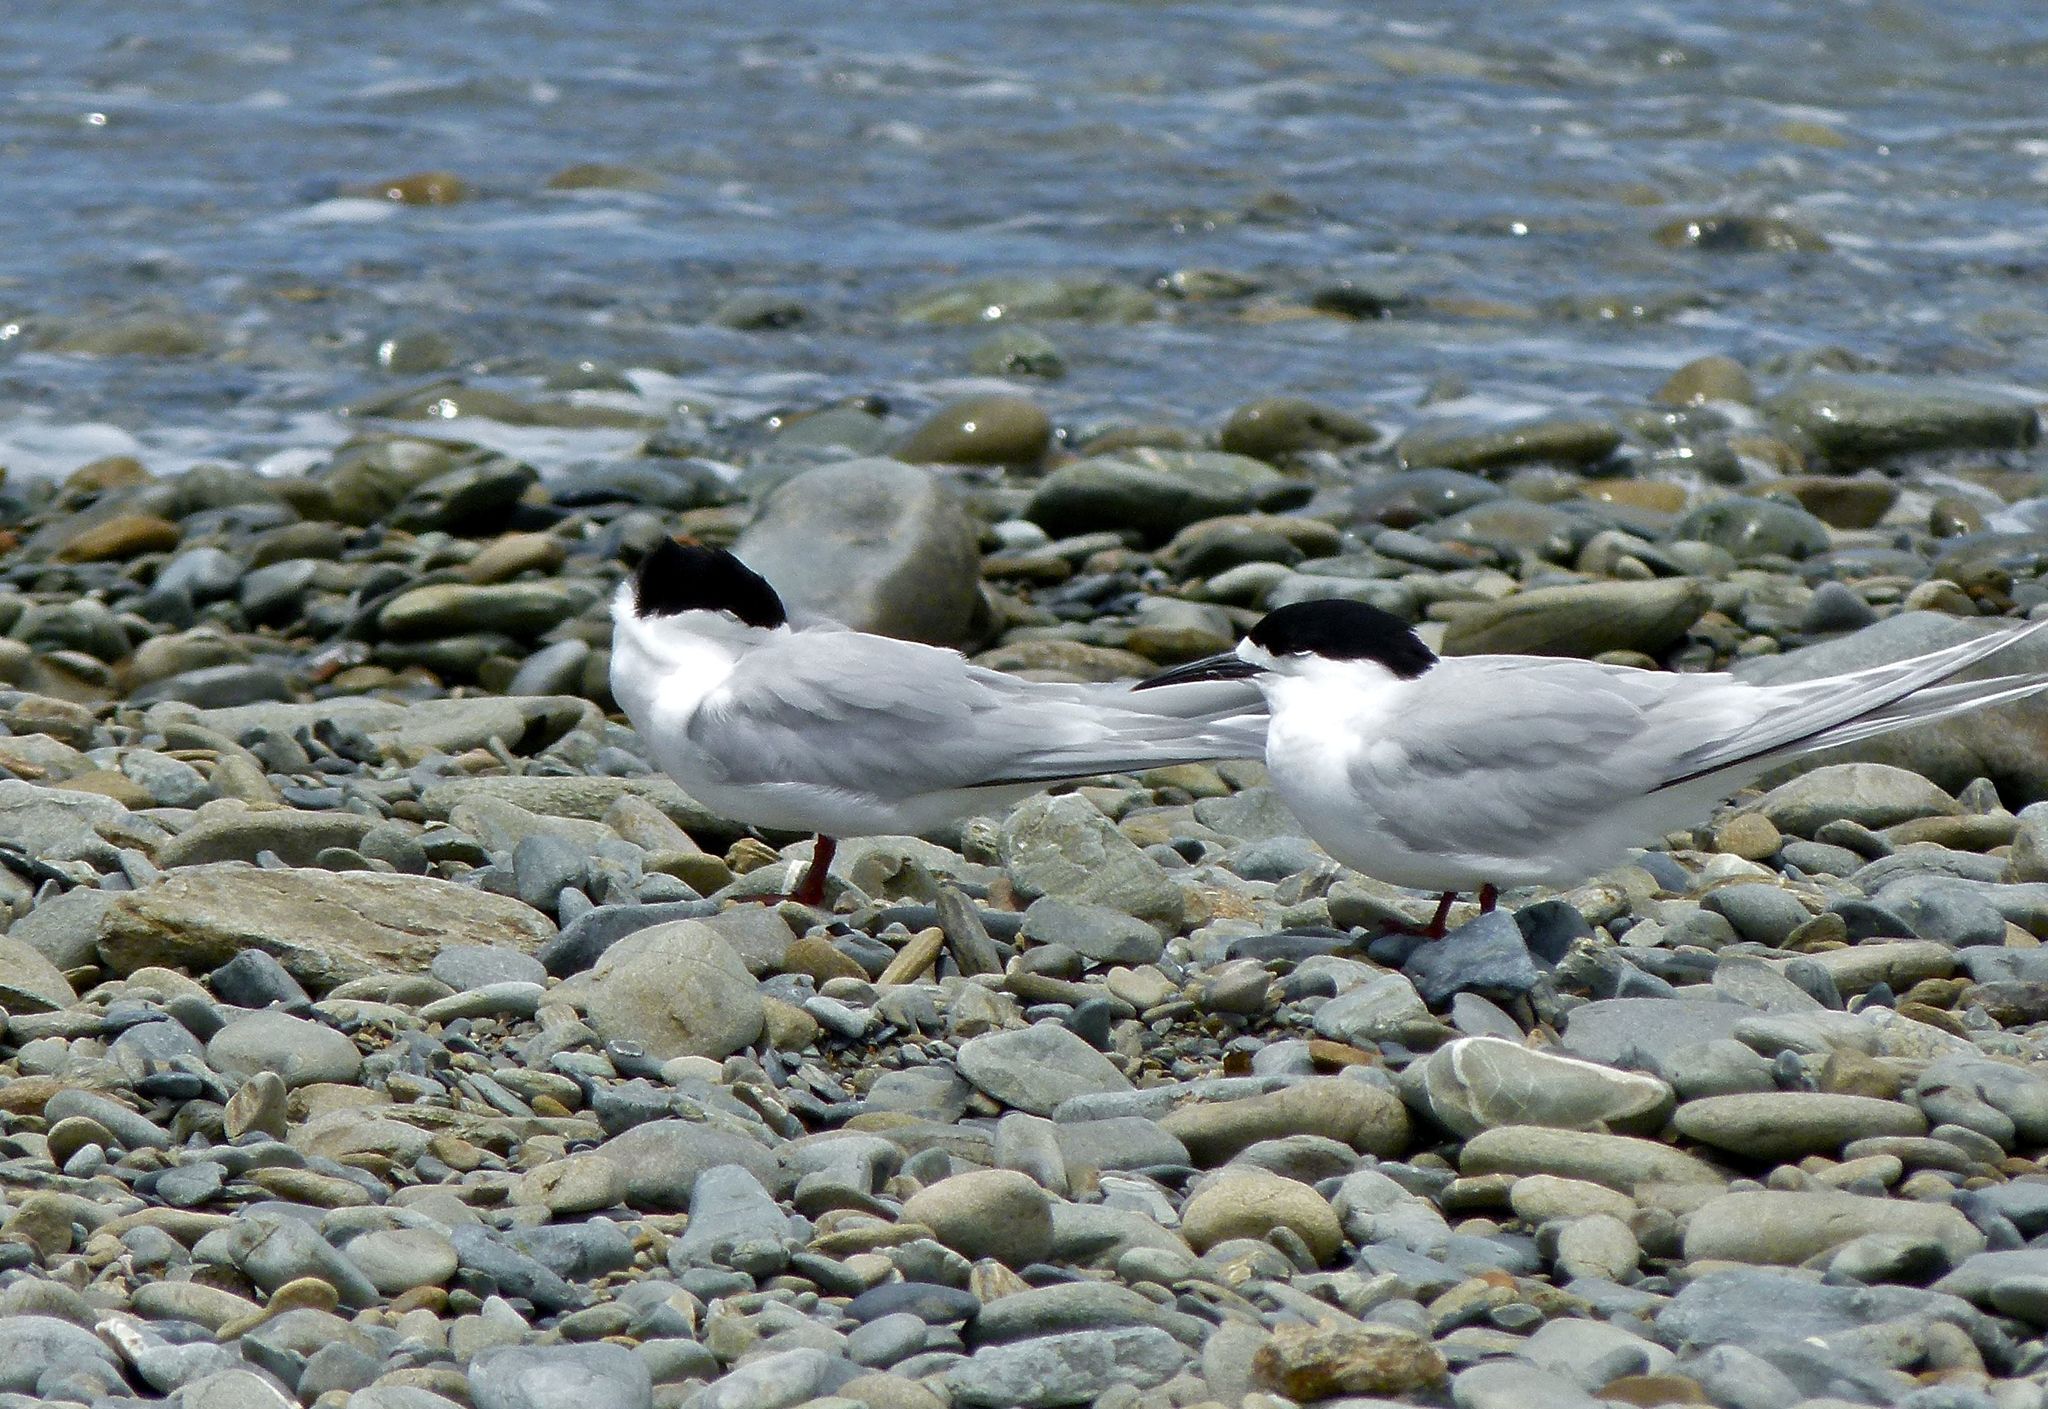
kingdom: Animalia
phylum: Chordata
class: Aves
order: Charadriiformes
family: Laridae
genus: Sterna
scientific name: Sterna striata
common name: White-fronted tern
